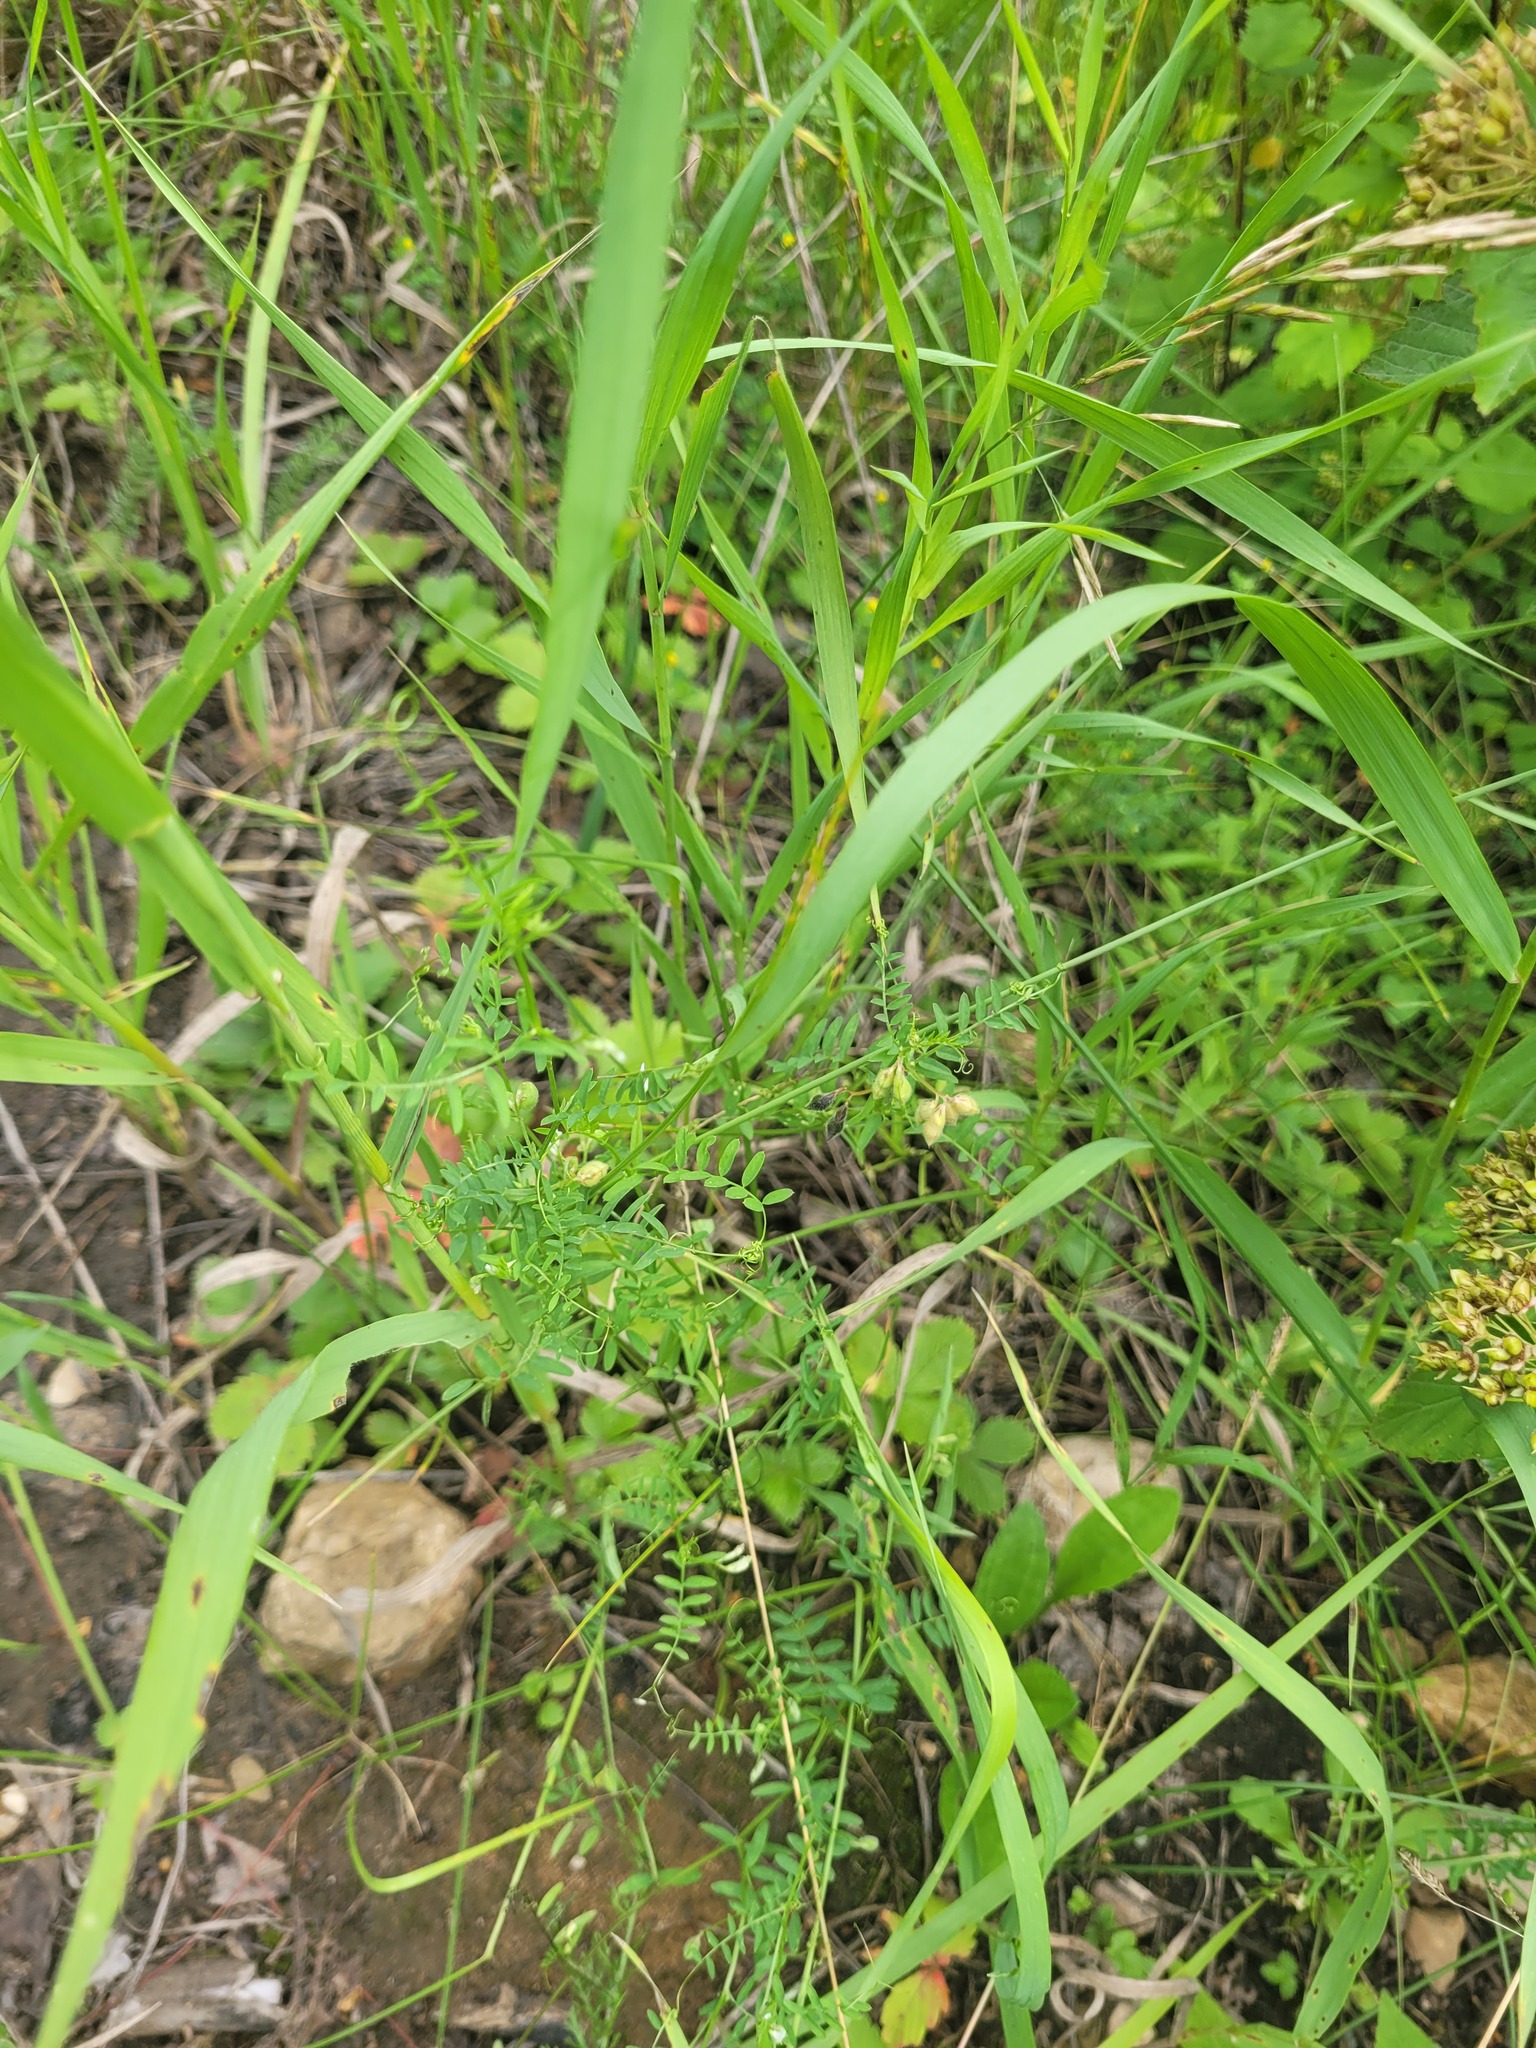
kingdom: Plantae
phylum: Tracheophyta
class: Magnoliopsida
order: Fabales
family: Fabaceae
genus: Vicia
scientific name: Vicia hirsuta
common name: Tiny vetch
